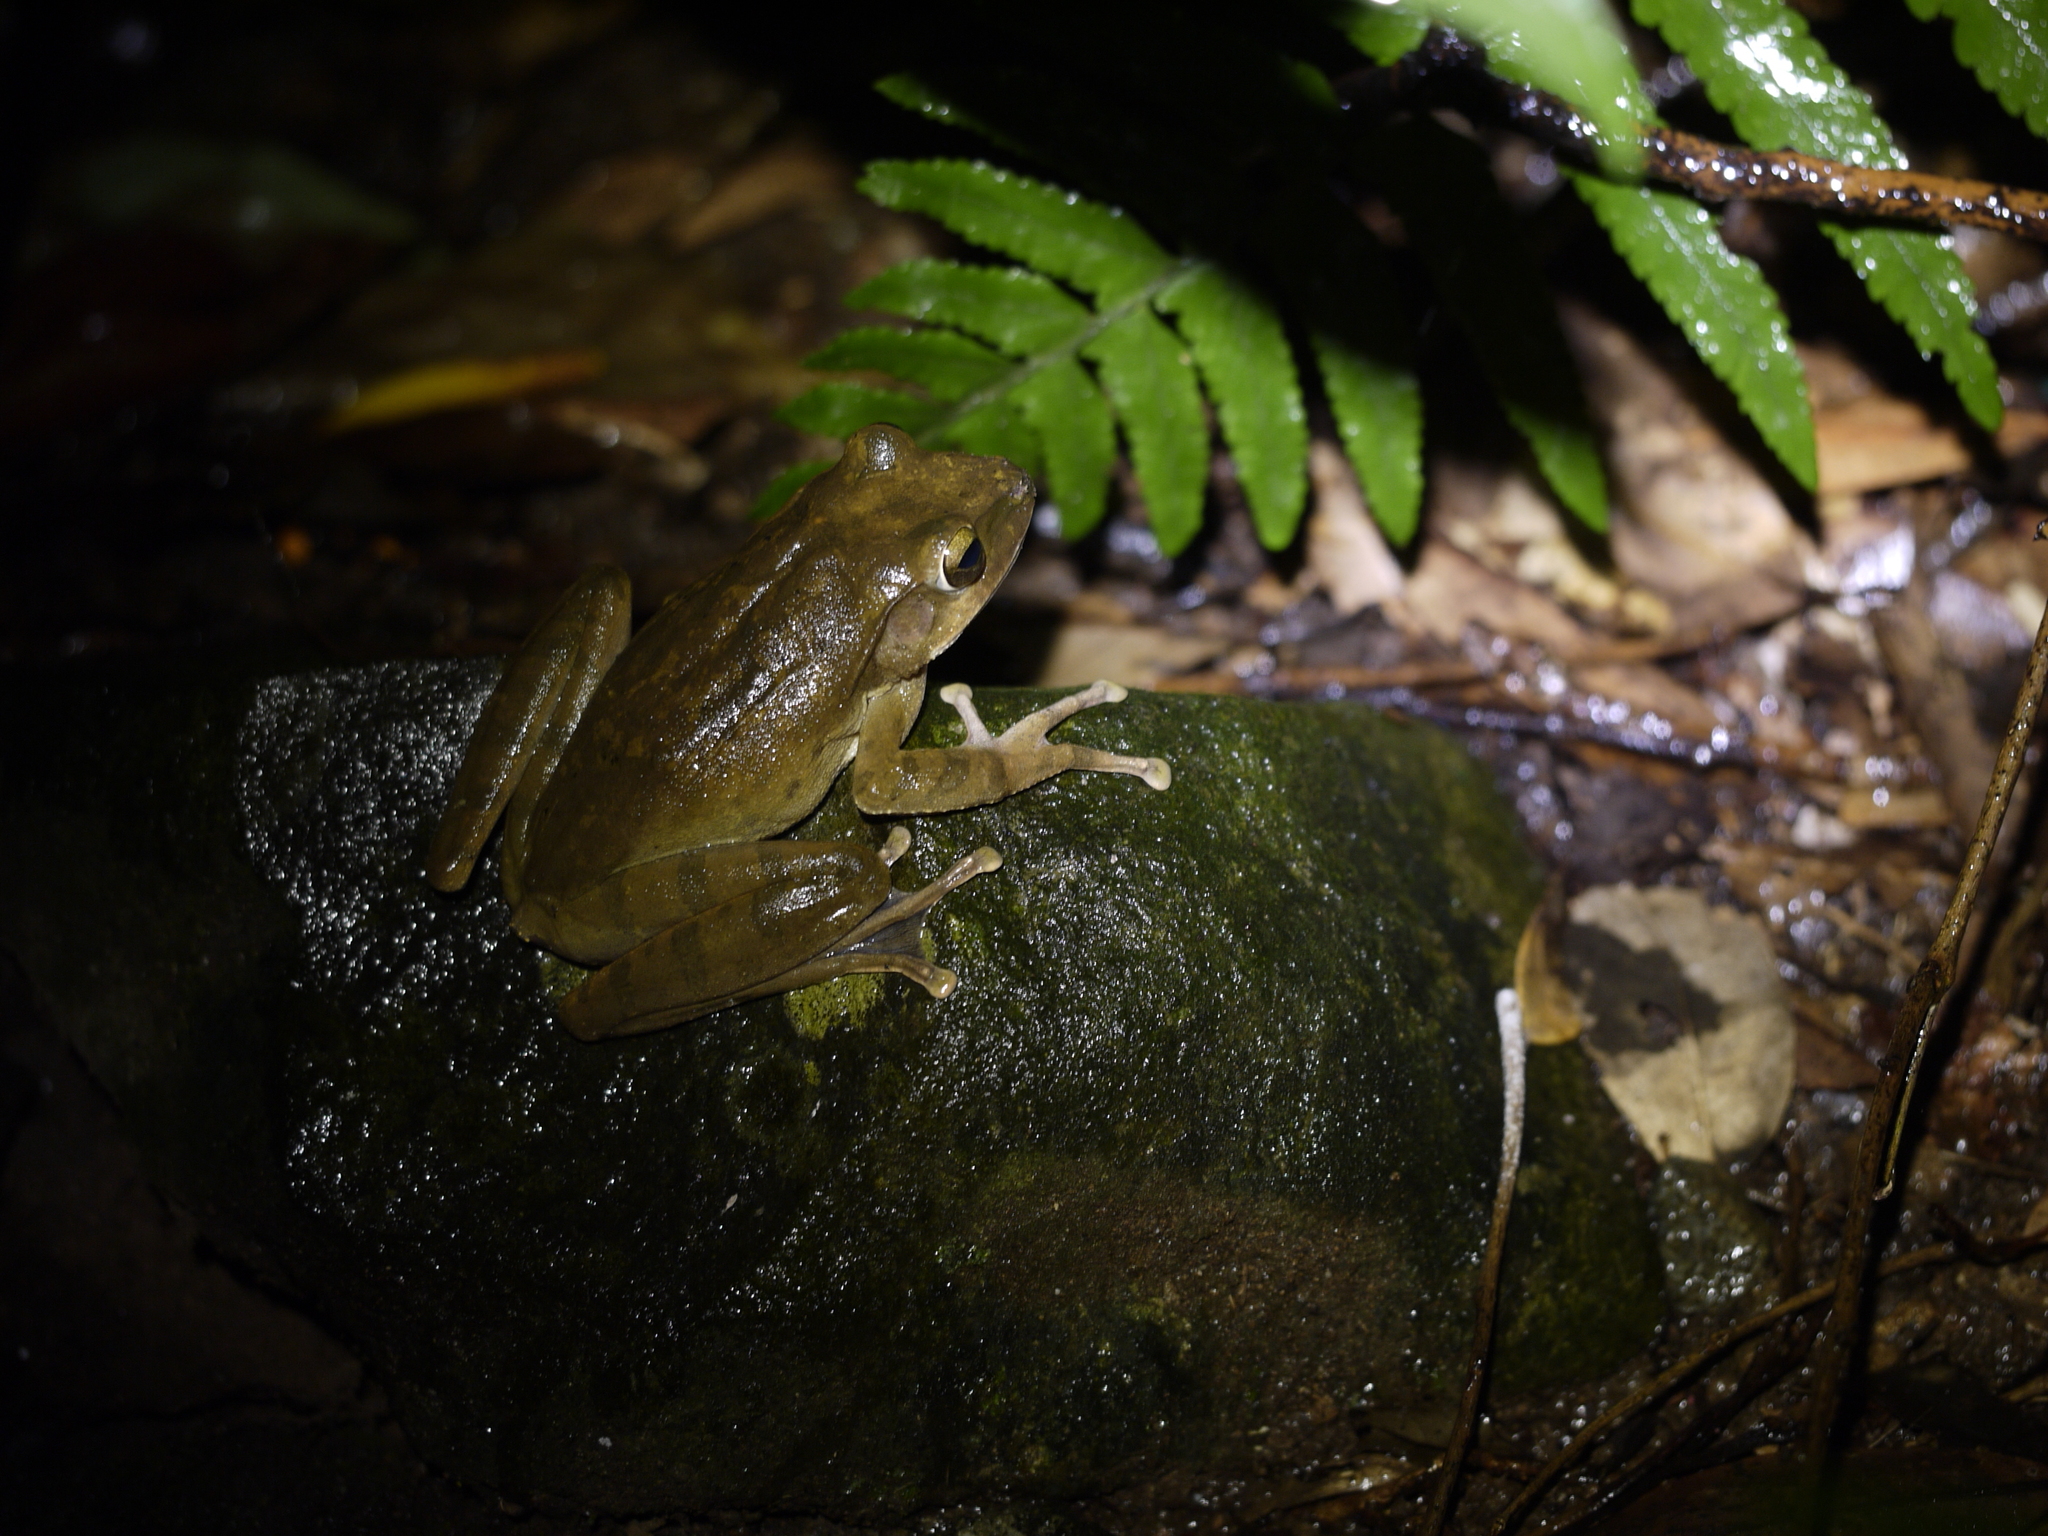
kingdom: Animalia
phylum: Chordata
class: Amphibia
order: Anura
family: Rhacophoridae
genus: Polypedates
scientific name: Polypedates megacephalus
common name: Hong kong whipping frog
